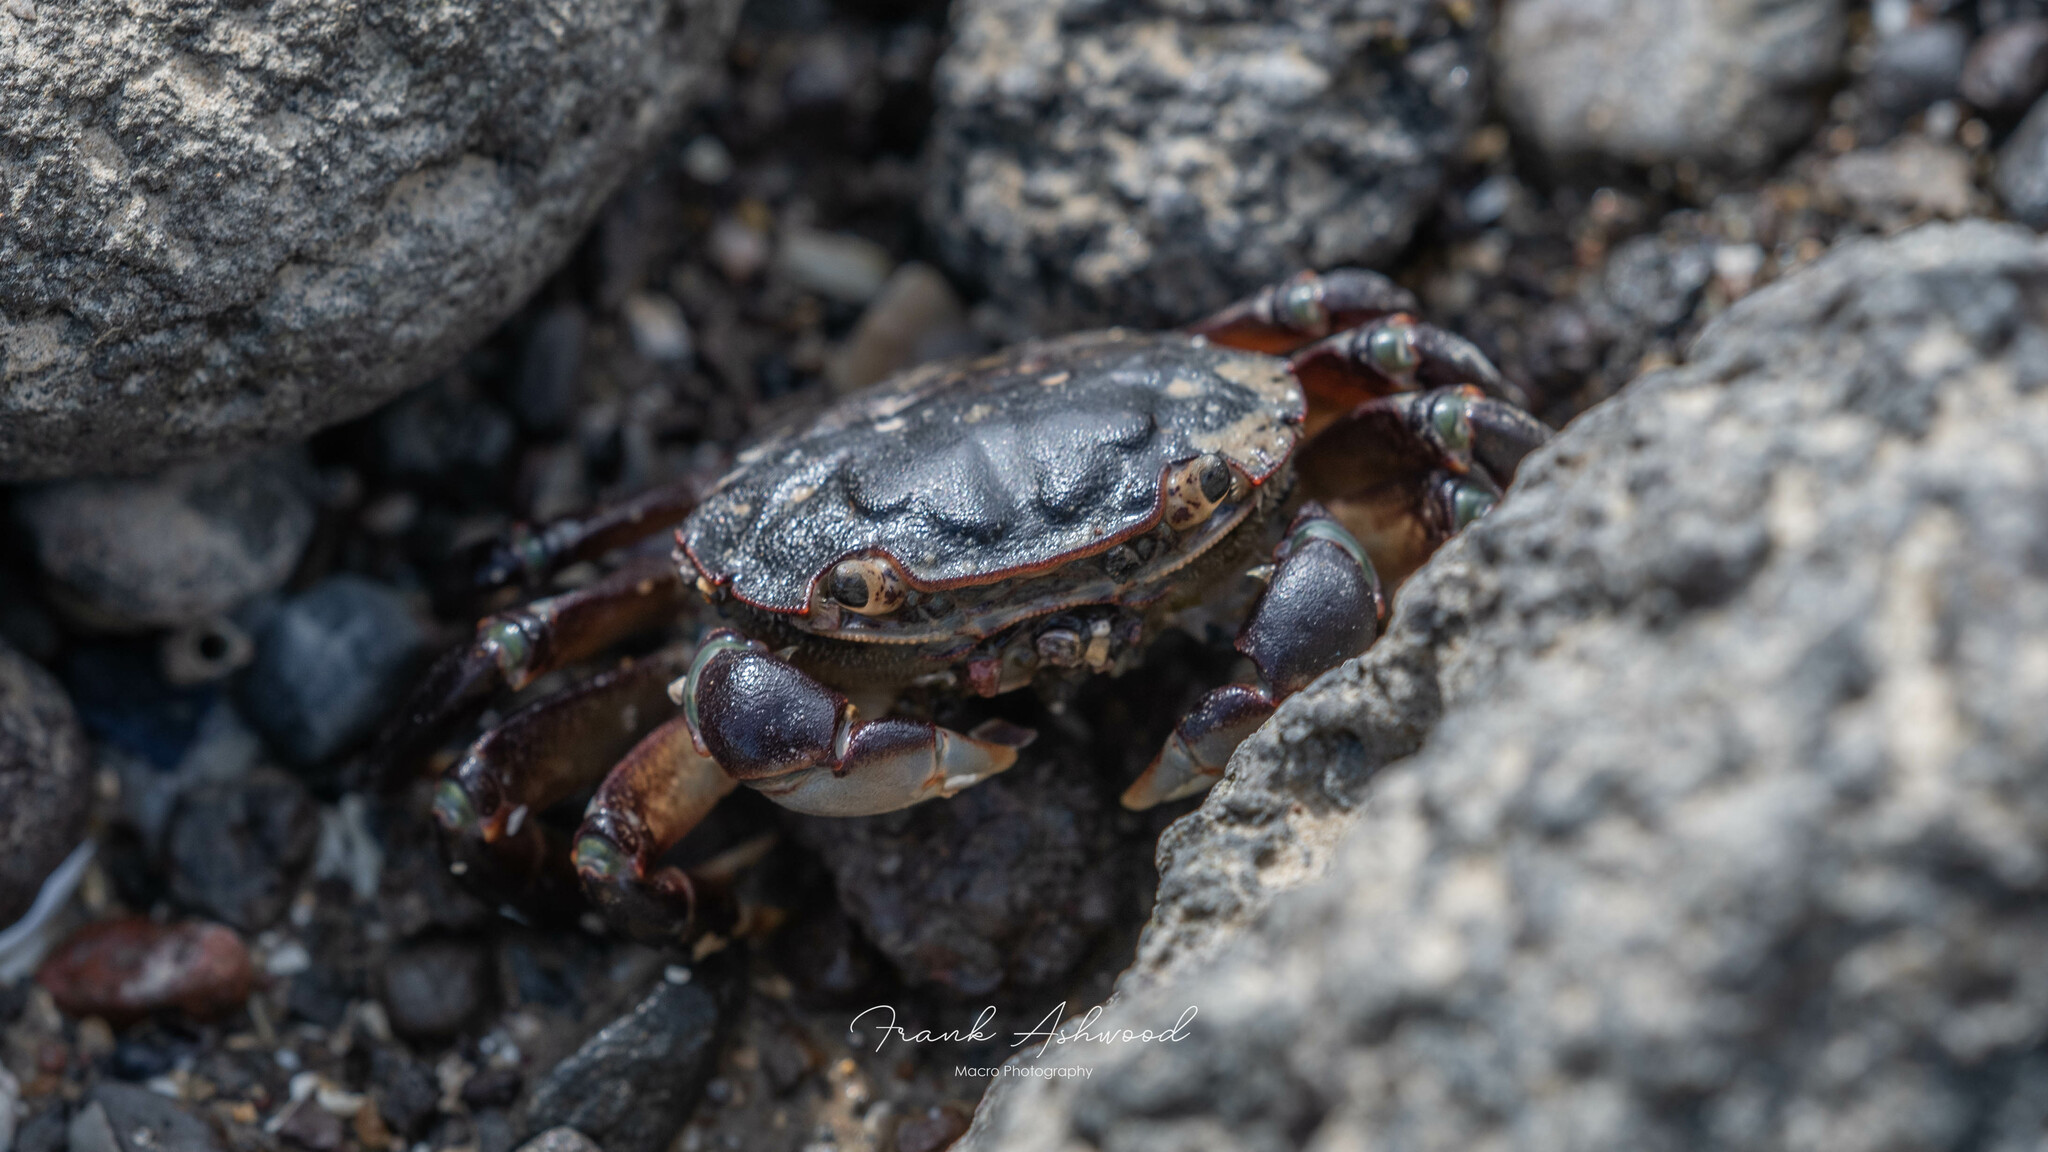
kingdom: Animalia
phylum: Arthropoda
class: Malacostraca
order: Decapoda
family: Varunidae
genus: Hemigrapsus
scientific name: Hemigrapsus sexdentatus
